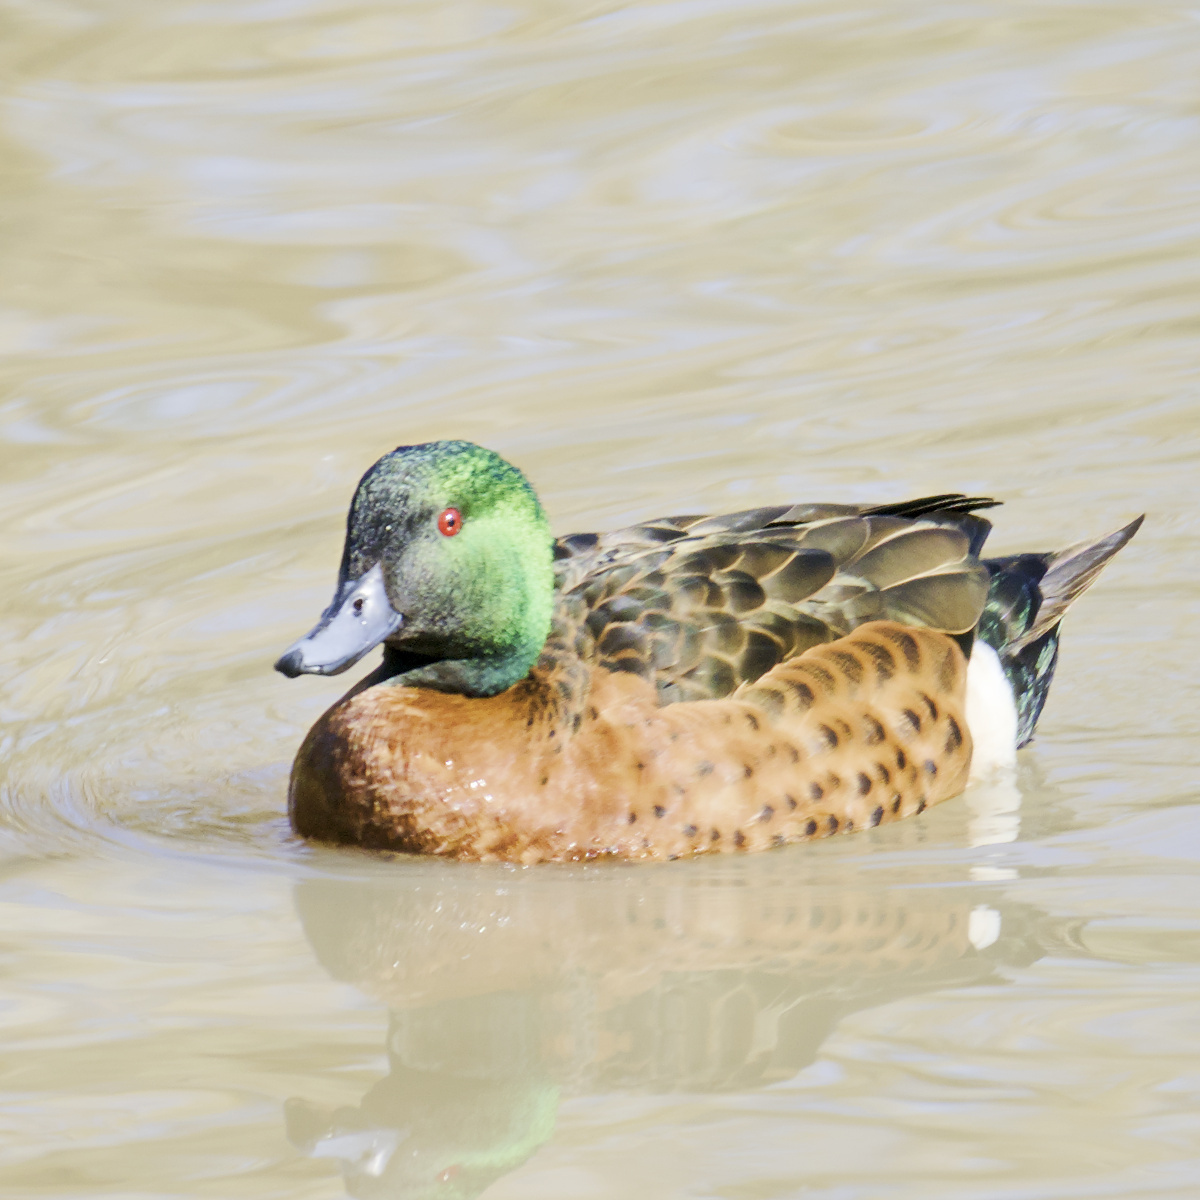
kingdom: Animalia
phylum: Chordata
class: Aves
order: Anseriformes
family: Anatidae
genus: Anas
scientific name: Anas castanea
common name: Chestnut teal
